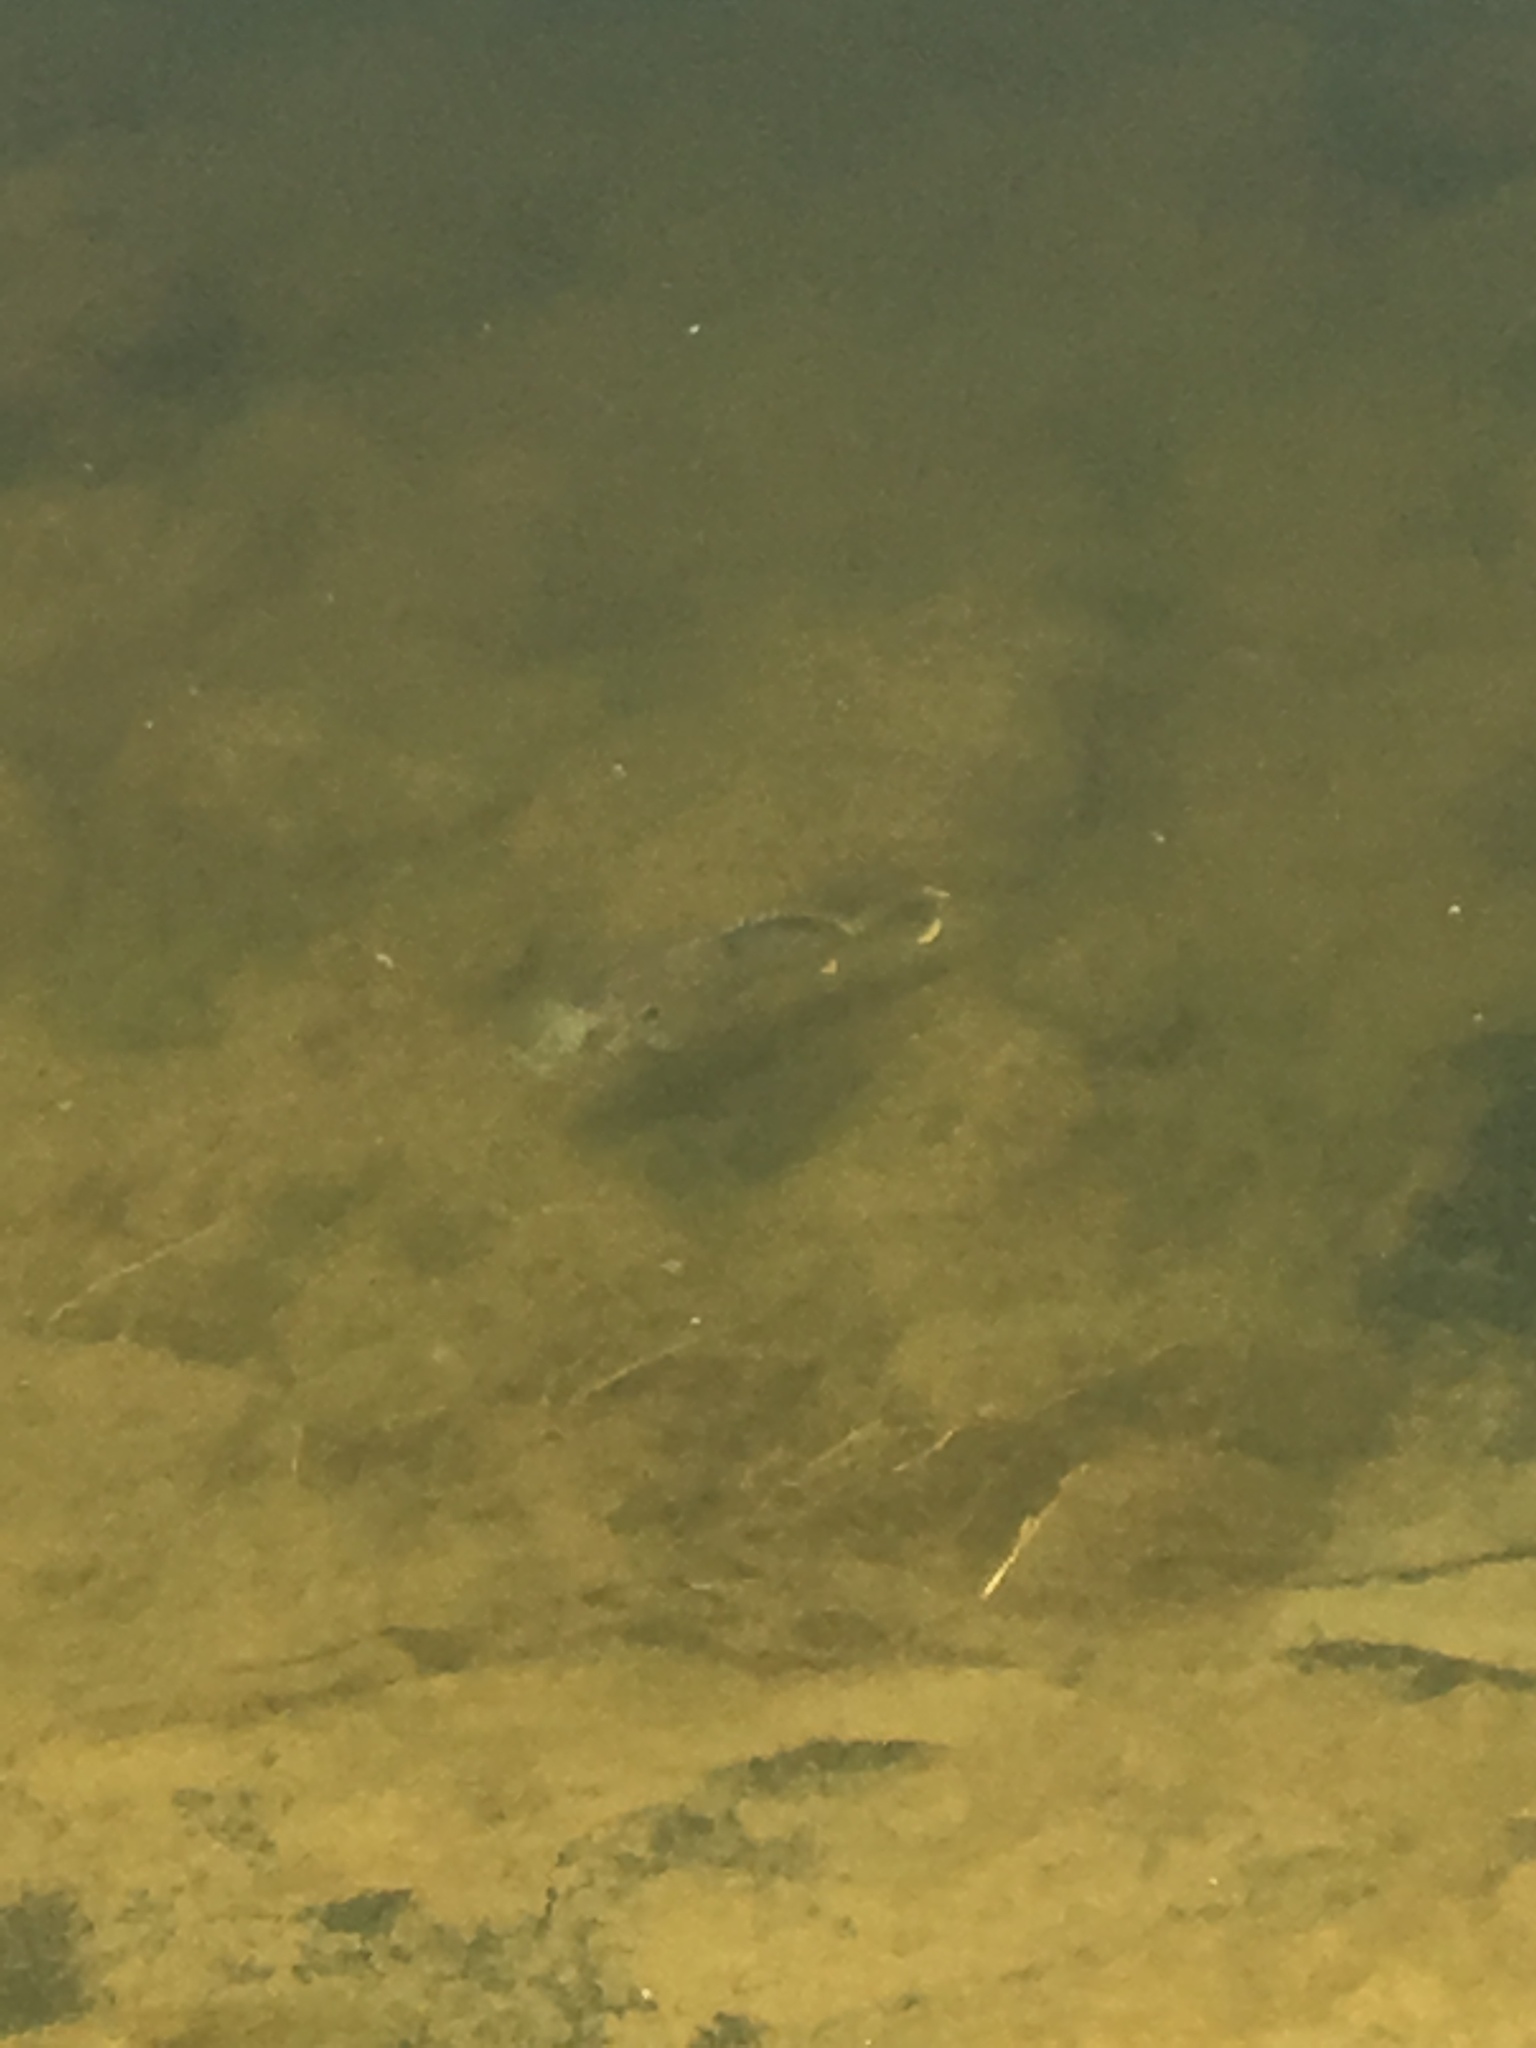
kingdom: Animalia
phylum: Chordata
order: Perciformes
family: Centrarchidae
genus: Lepomis
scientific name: Lepomis cyanellus
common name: Green sunfish
